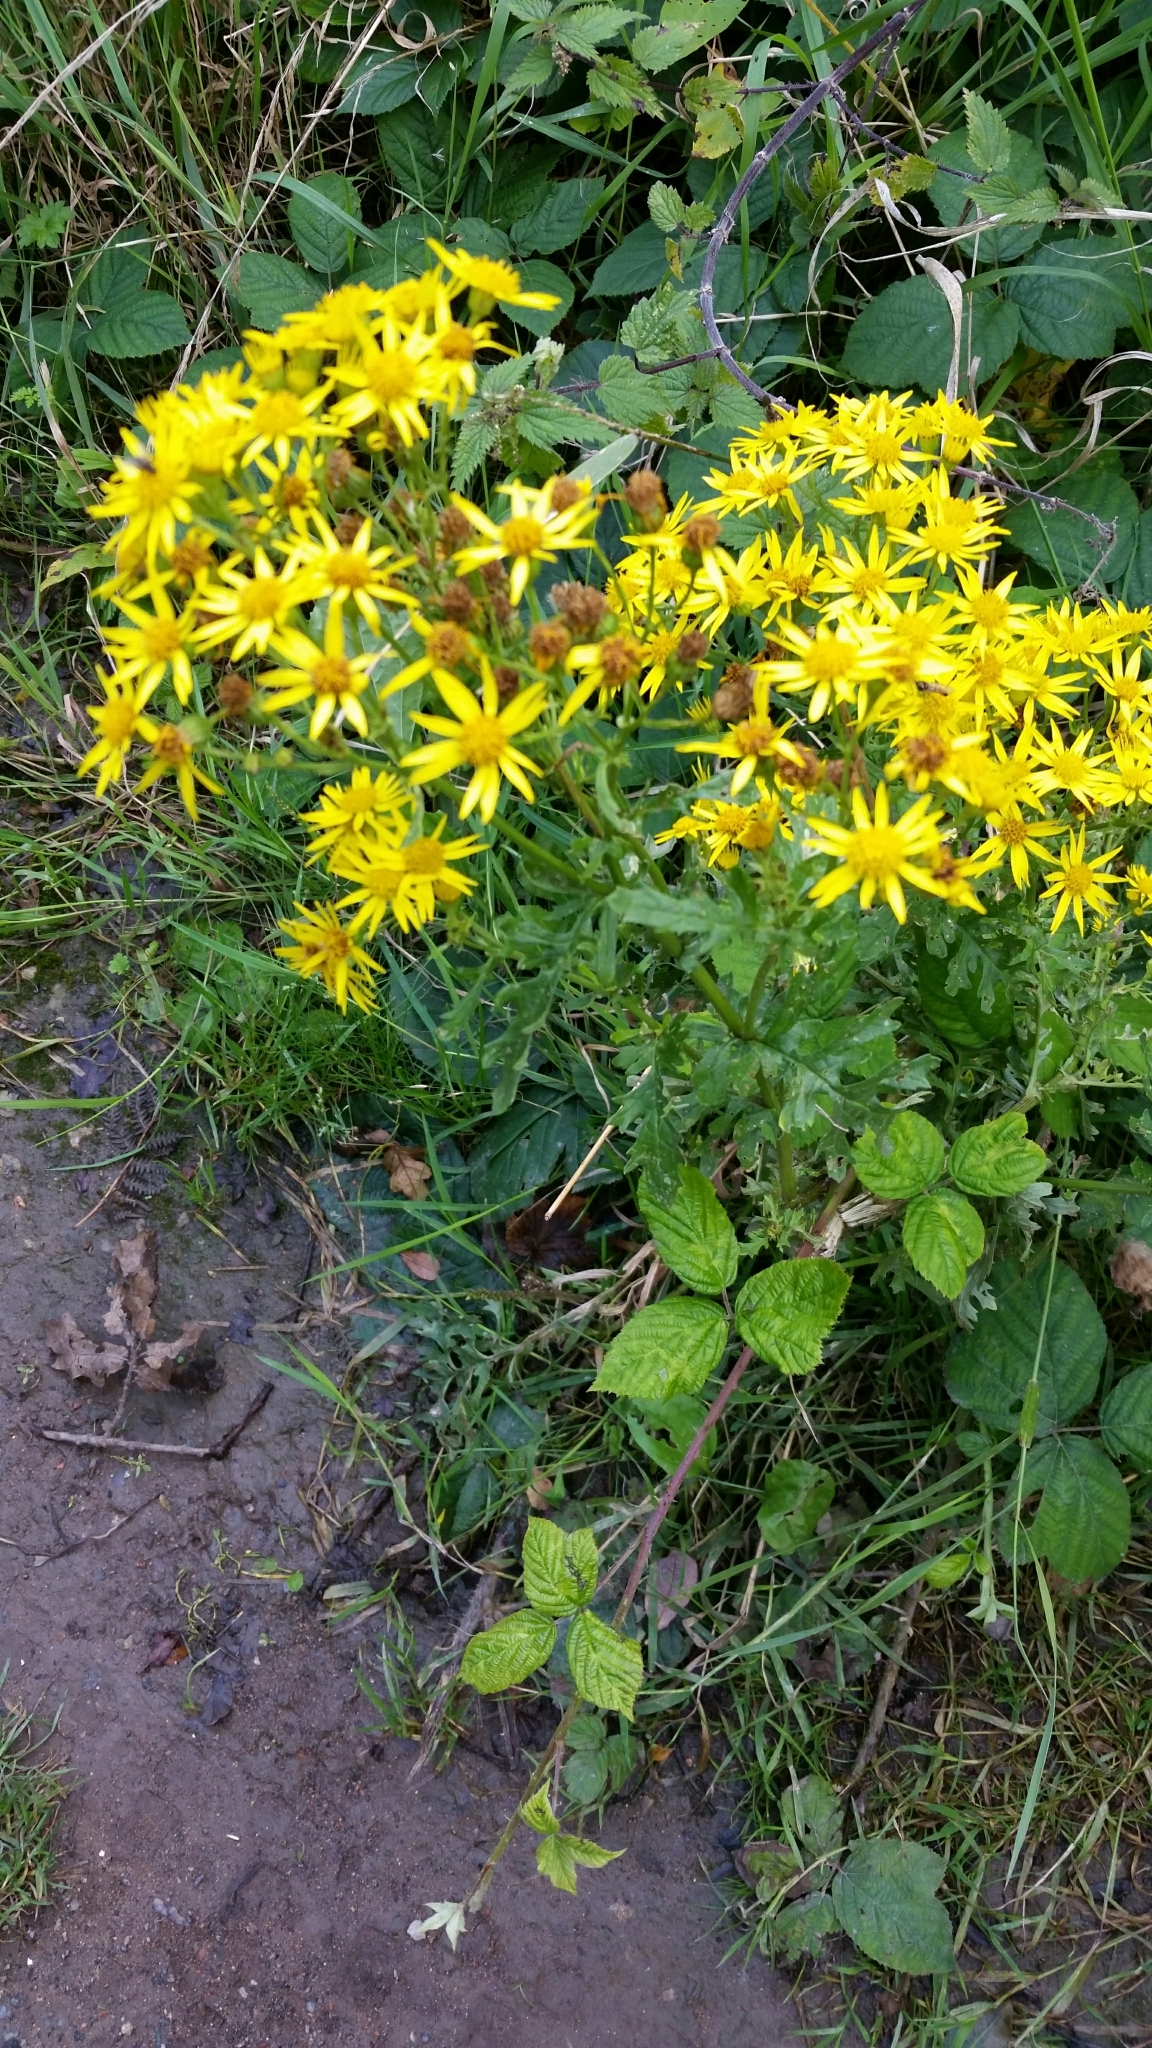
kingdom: Plantae
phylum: Tracheophyta
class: Magnoliopsida
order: Asterales
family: Asteraceae
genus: Jacobaea
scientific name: Jacobaea vulgaris
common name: Stinking willie
